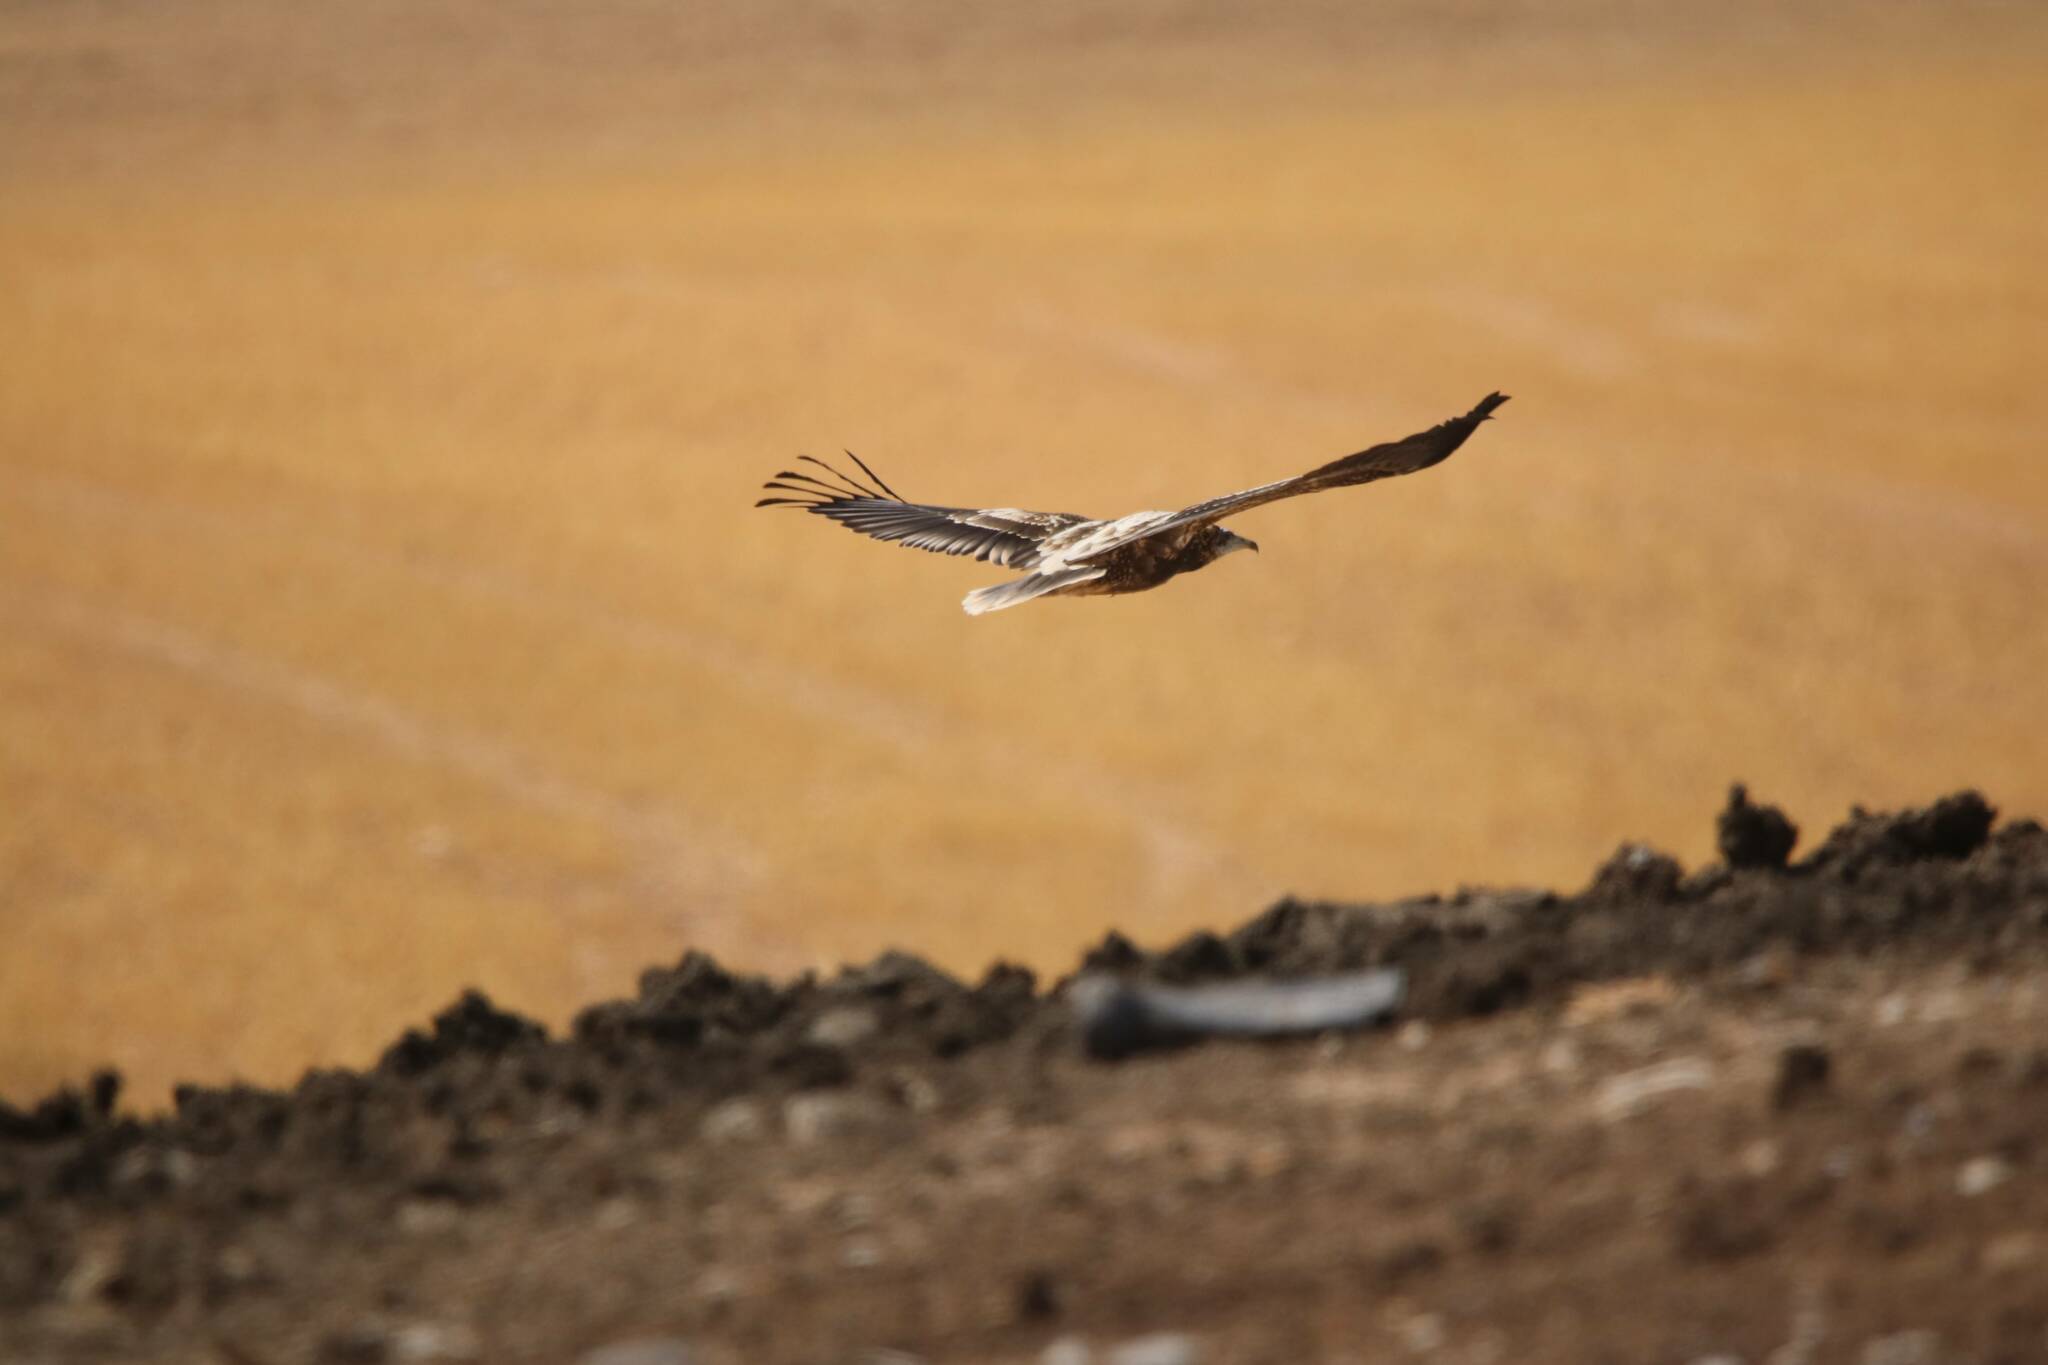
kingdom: Animalia
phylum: Chordata
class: Aves
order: Accipitriformes
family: Accipitridae
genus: Neophron
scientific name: Neophron percnopterus
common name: Egyptian vulture
